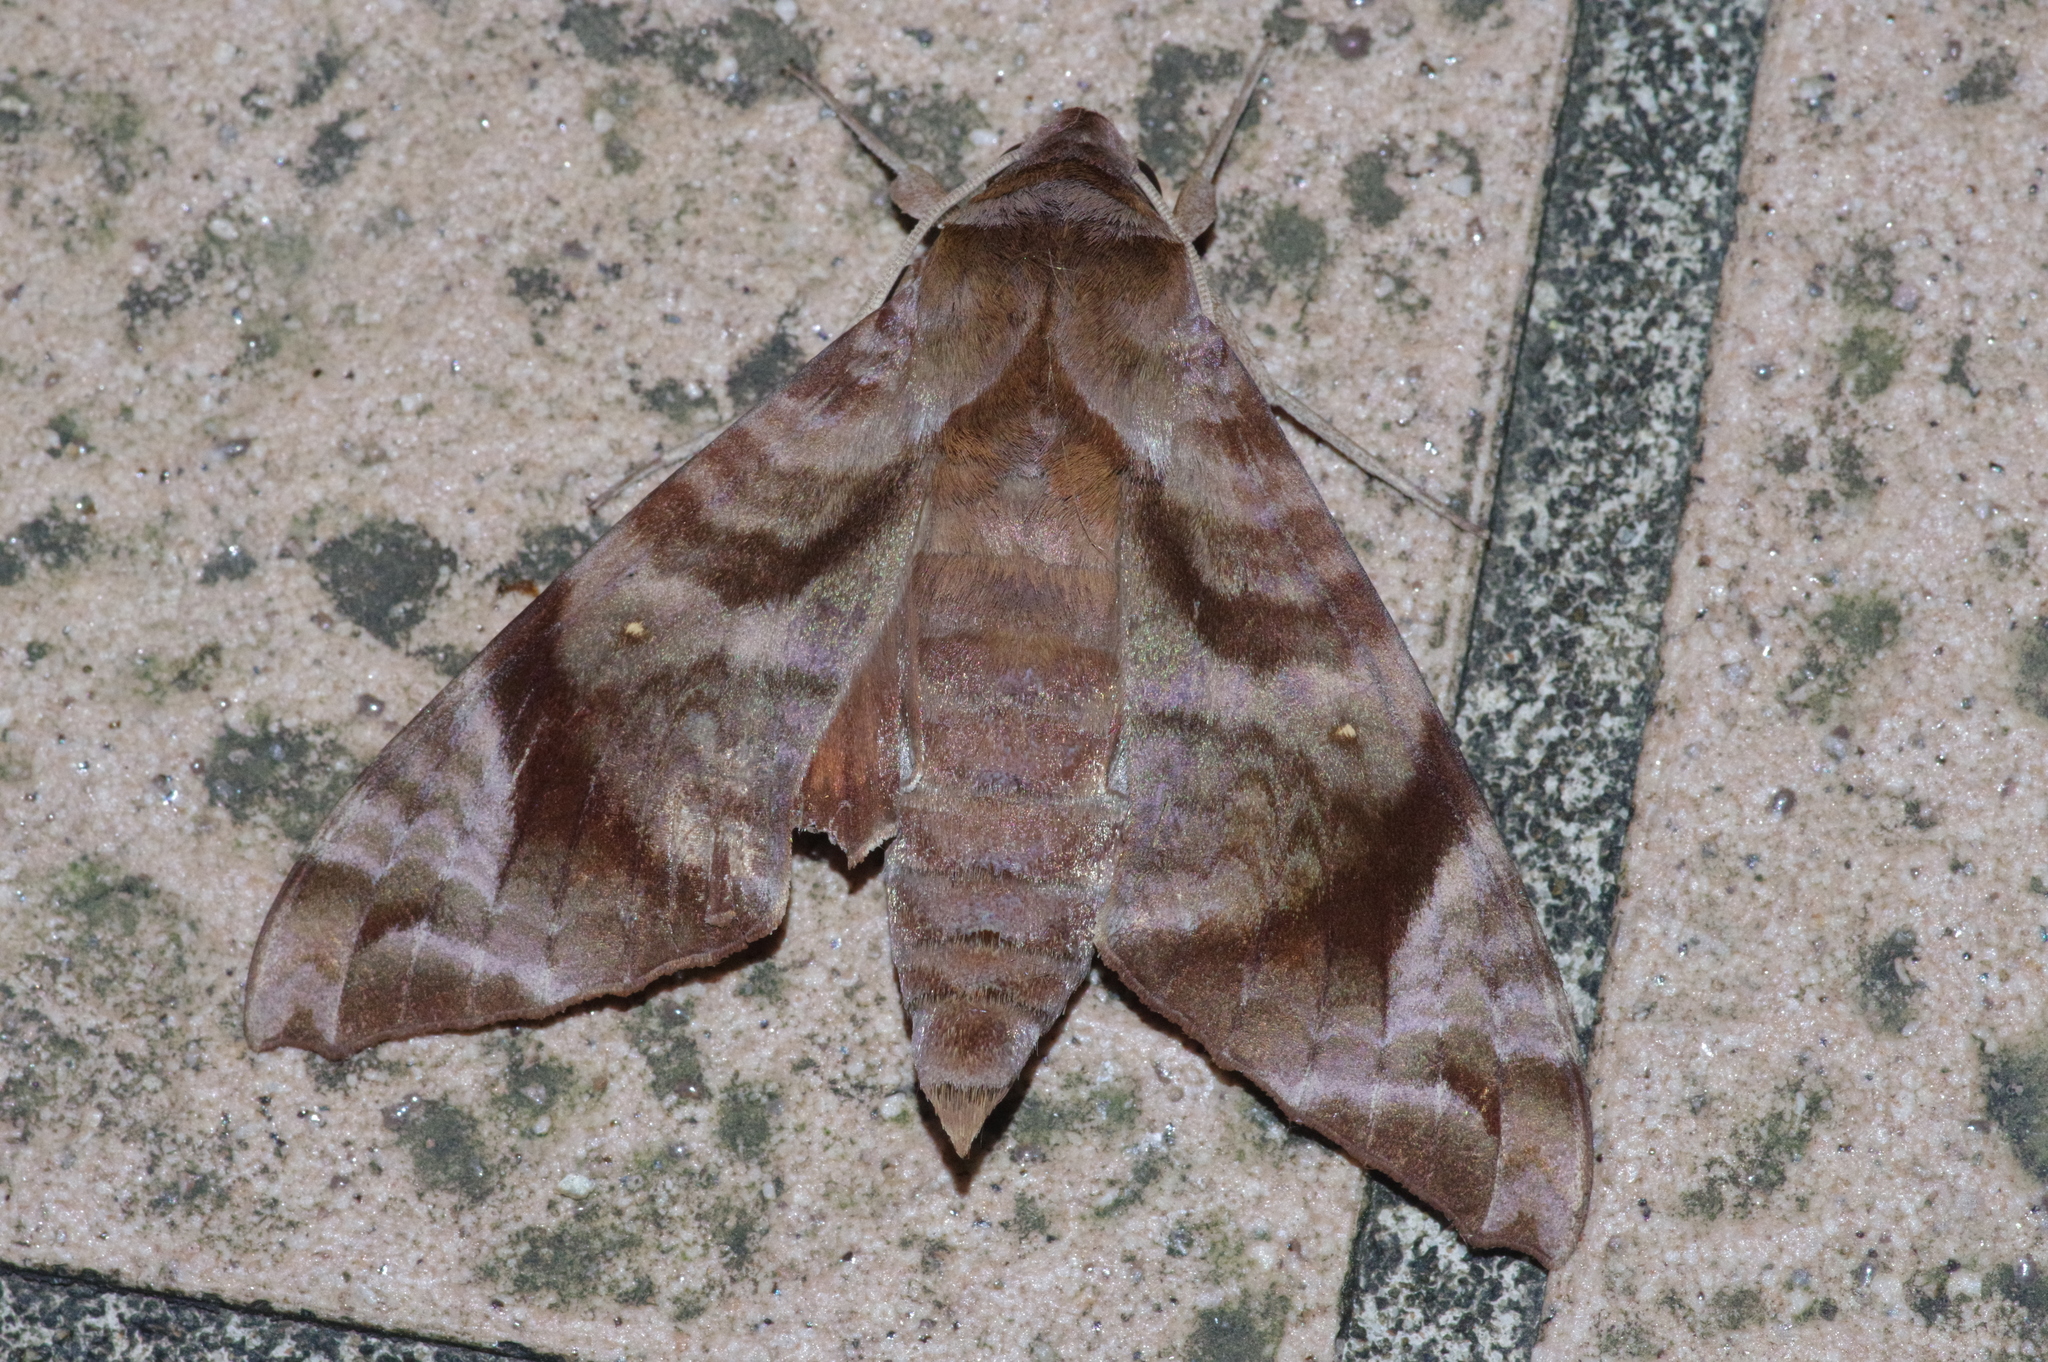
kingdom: Animalia
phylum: Arthropoda
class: Insecta
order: Lepidoptera
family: Sphingidae
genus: Acosmeryx
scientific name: Acosmeryx castanea
